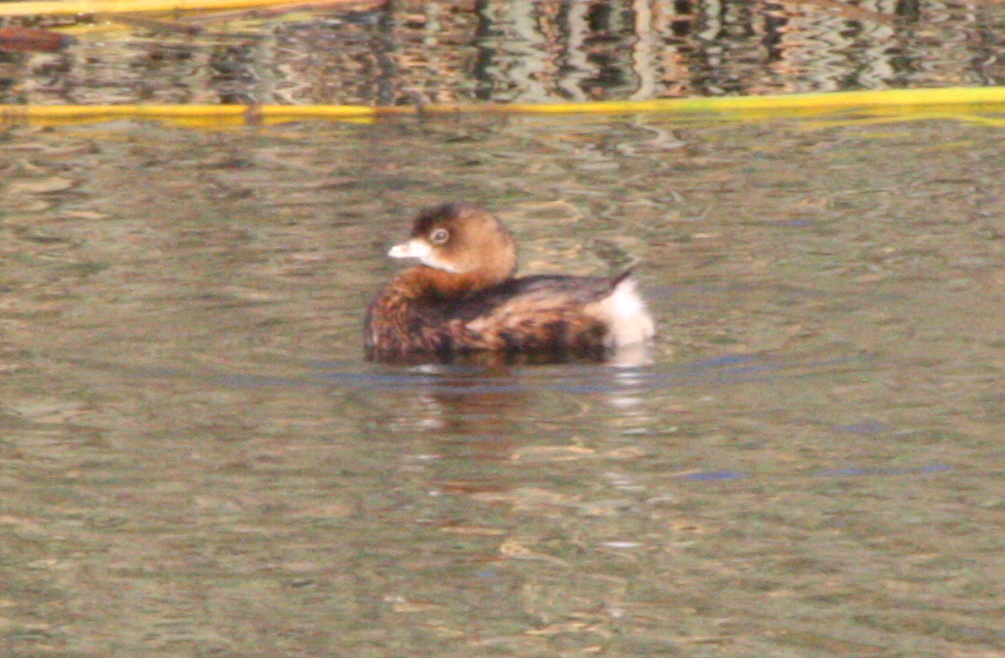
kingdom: Animalia
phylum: Chordata
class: Aves
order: Podicipediformes
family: Podicipedidae
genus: Podilymbus
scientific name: Podilymbus podiceps
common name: Pied-billed grebe
